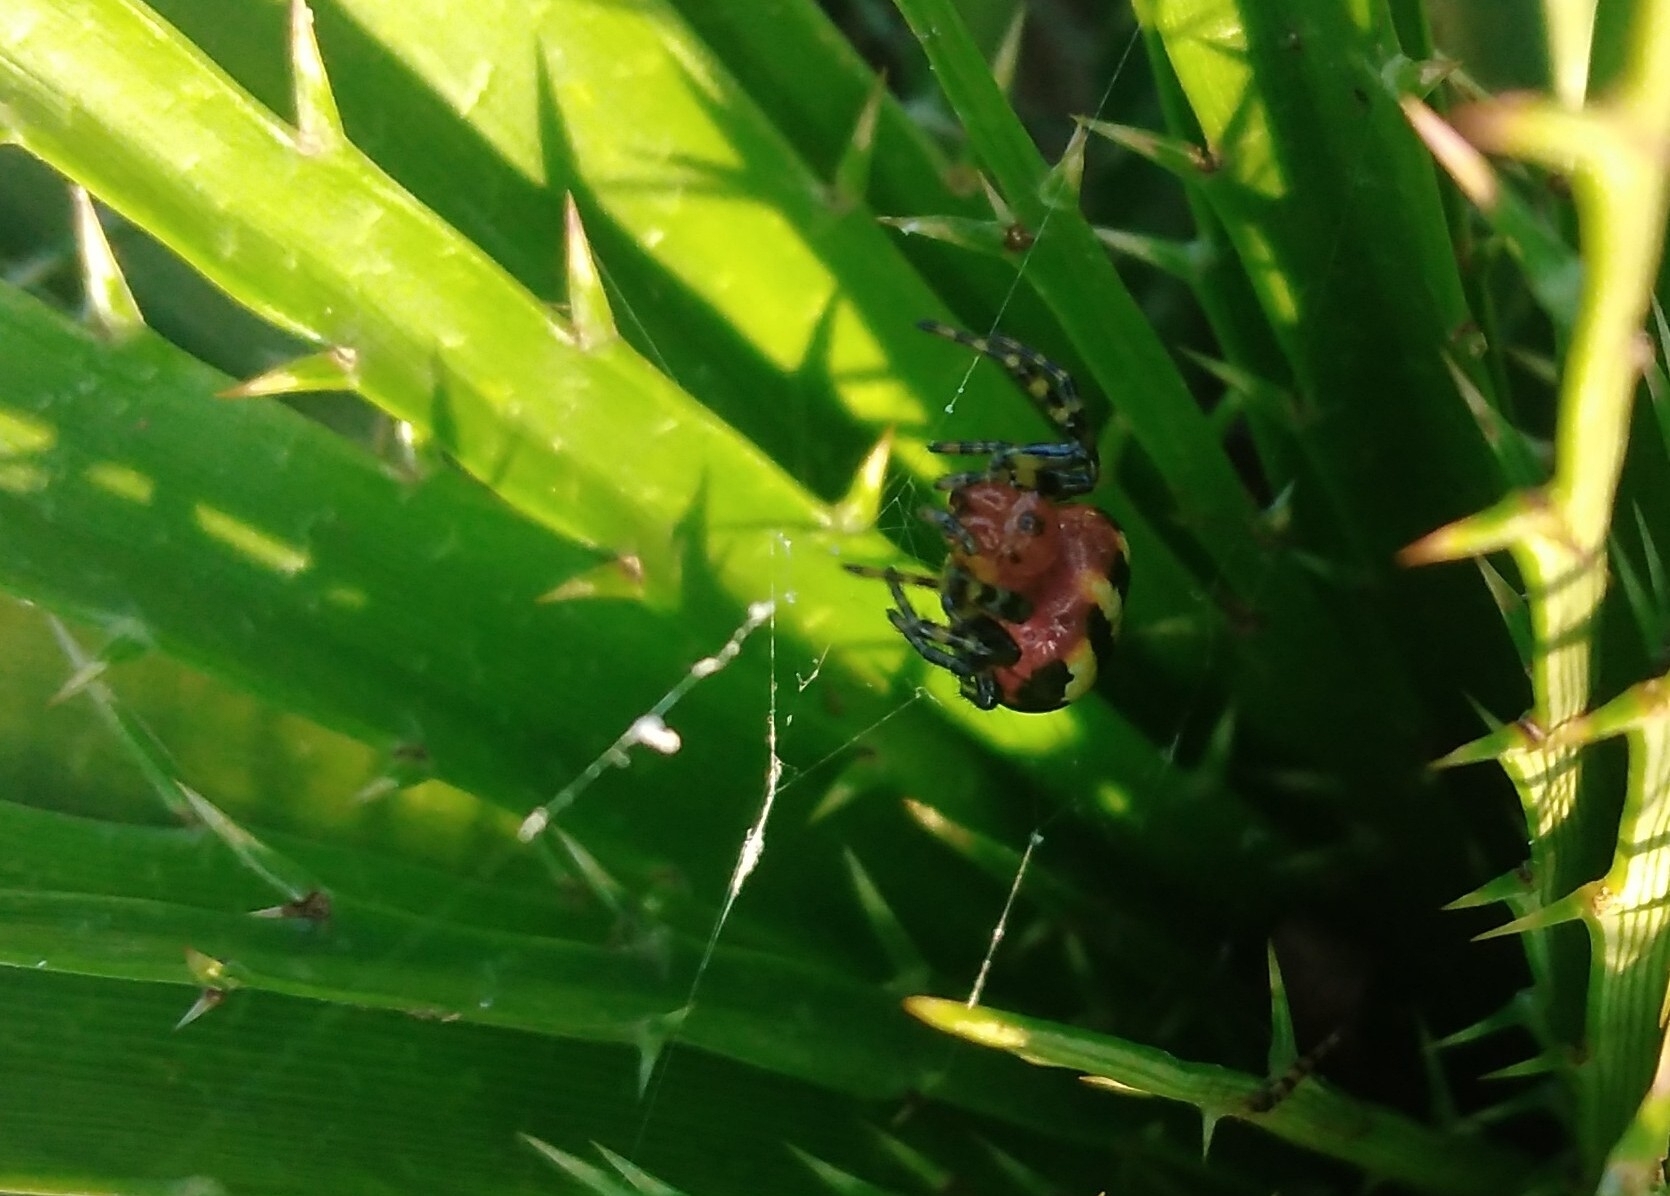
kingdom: Animalia
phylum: Arthropoda
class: Arachnida
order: Araneae
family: Araneidae
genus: Alpaida
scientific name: Alpaida quadrilorata
